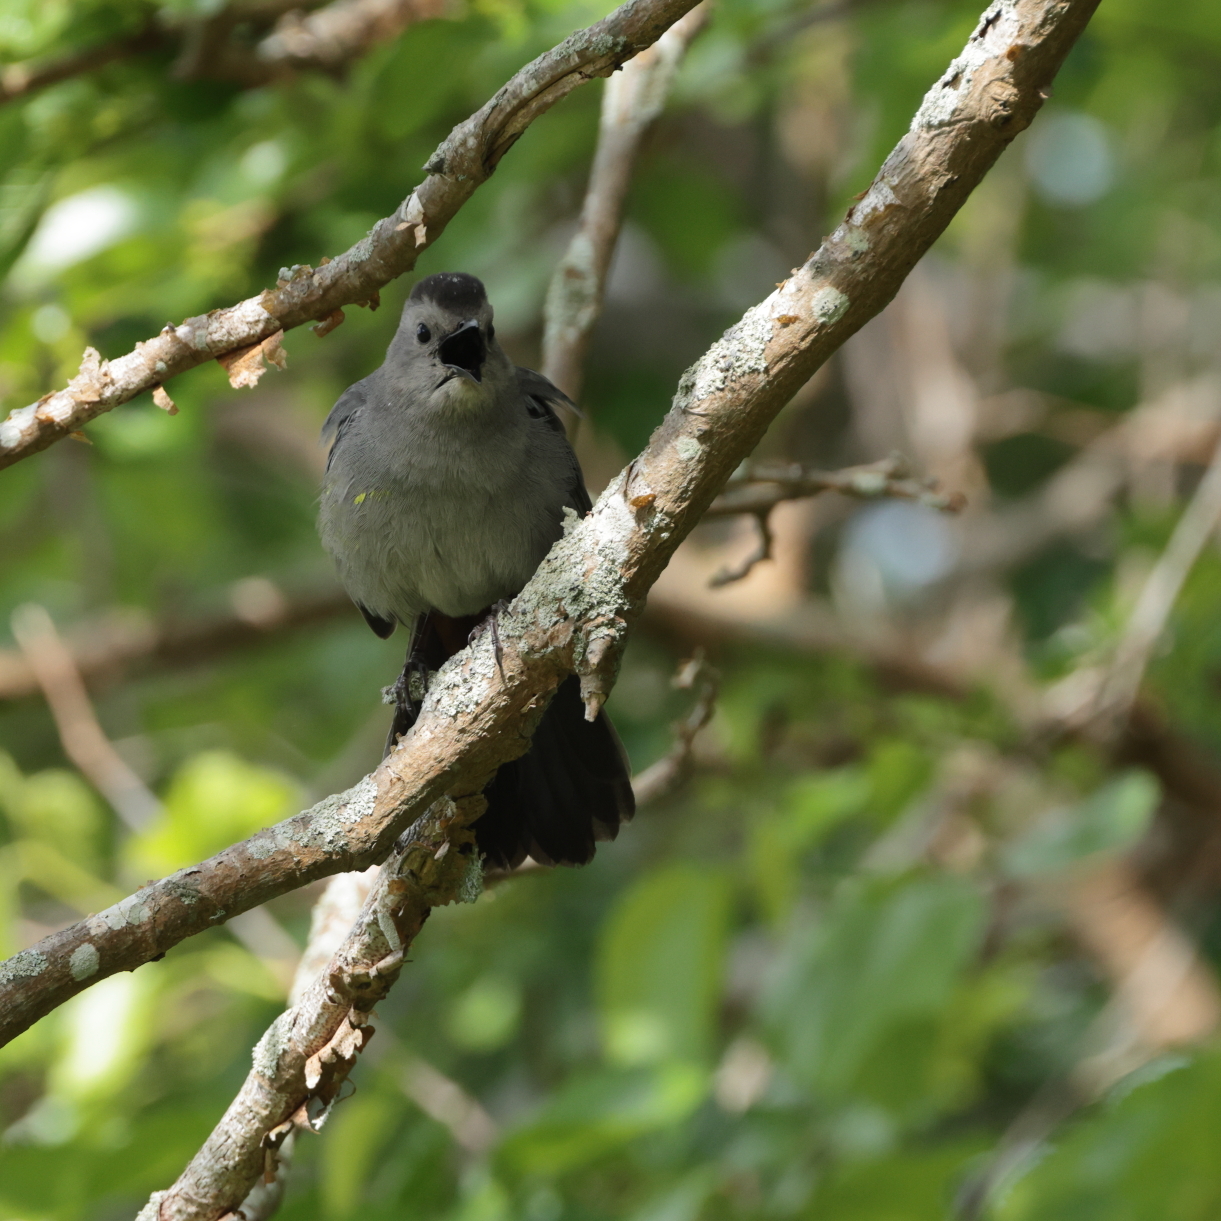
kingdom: Animalia
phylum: Chordata
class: Aves
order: Passeriformes
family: Mimidae
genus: Dumetella
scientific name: Dumetella carolinensis
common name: Gray catbird
